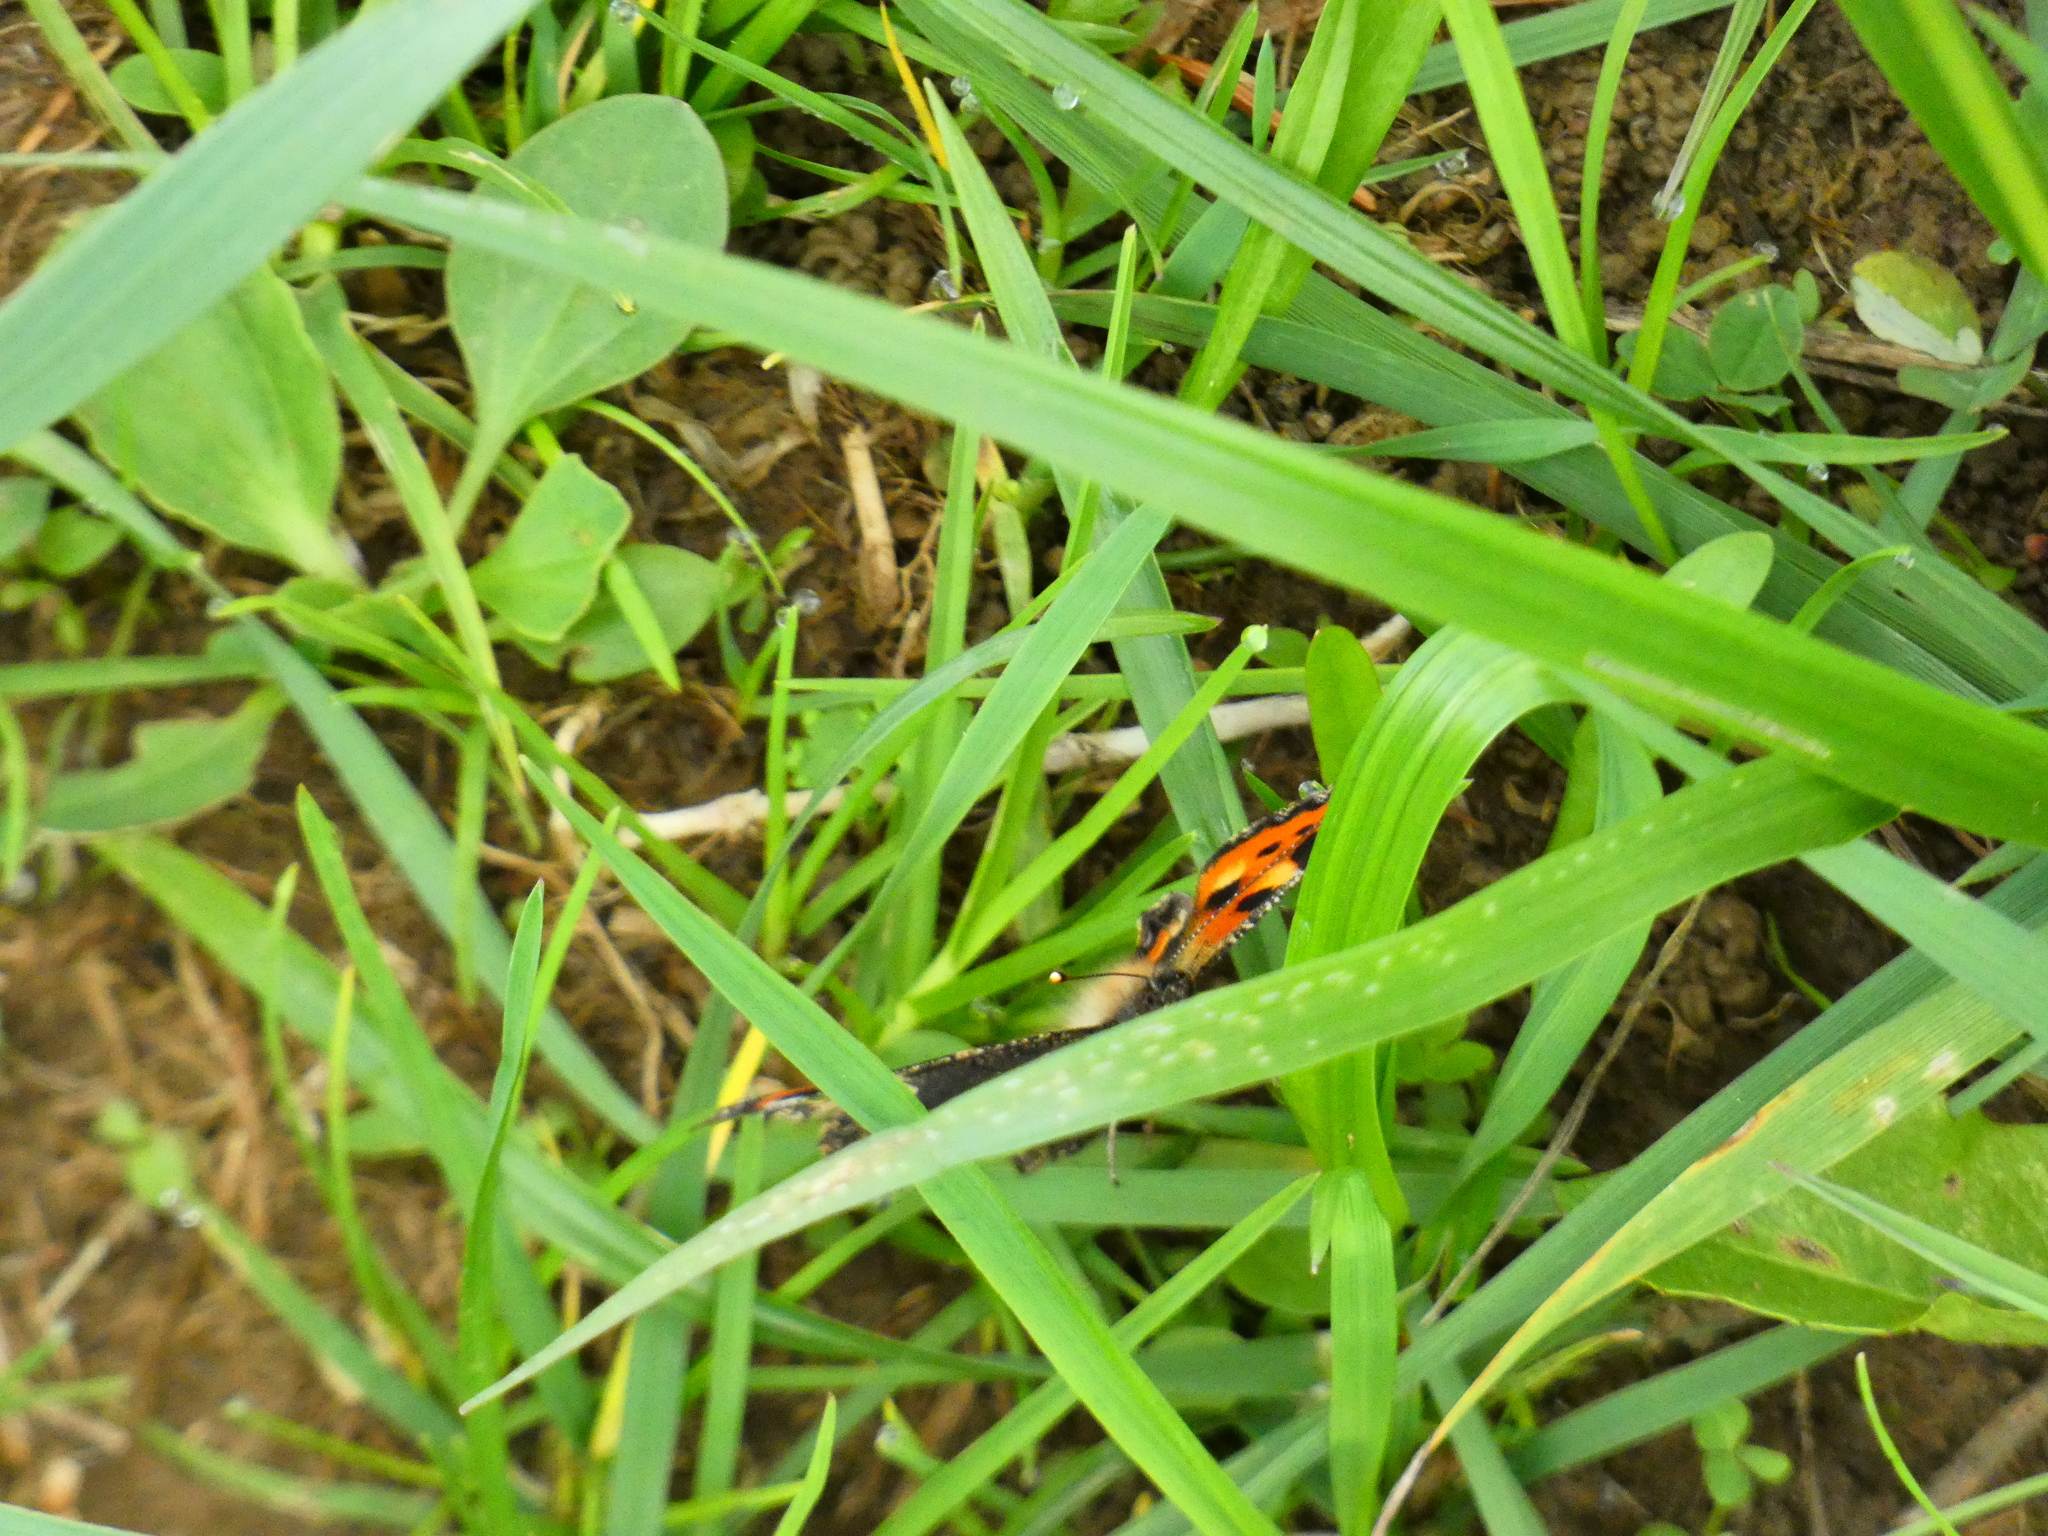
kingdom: Animalia
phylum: Arthropoda
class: Insecta
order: Lepidoptera
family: Nymphalidae
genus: Aglais
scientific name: Aglais urticae
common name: Small tortoiseshell
